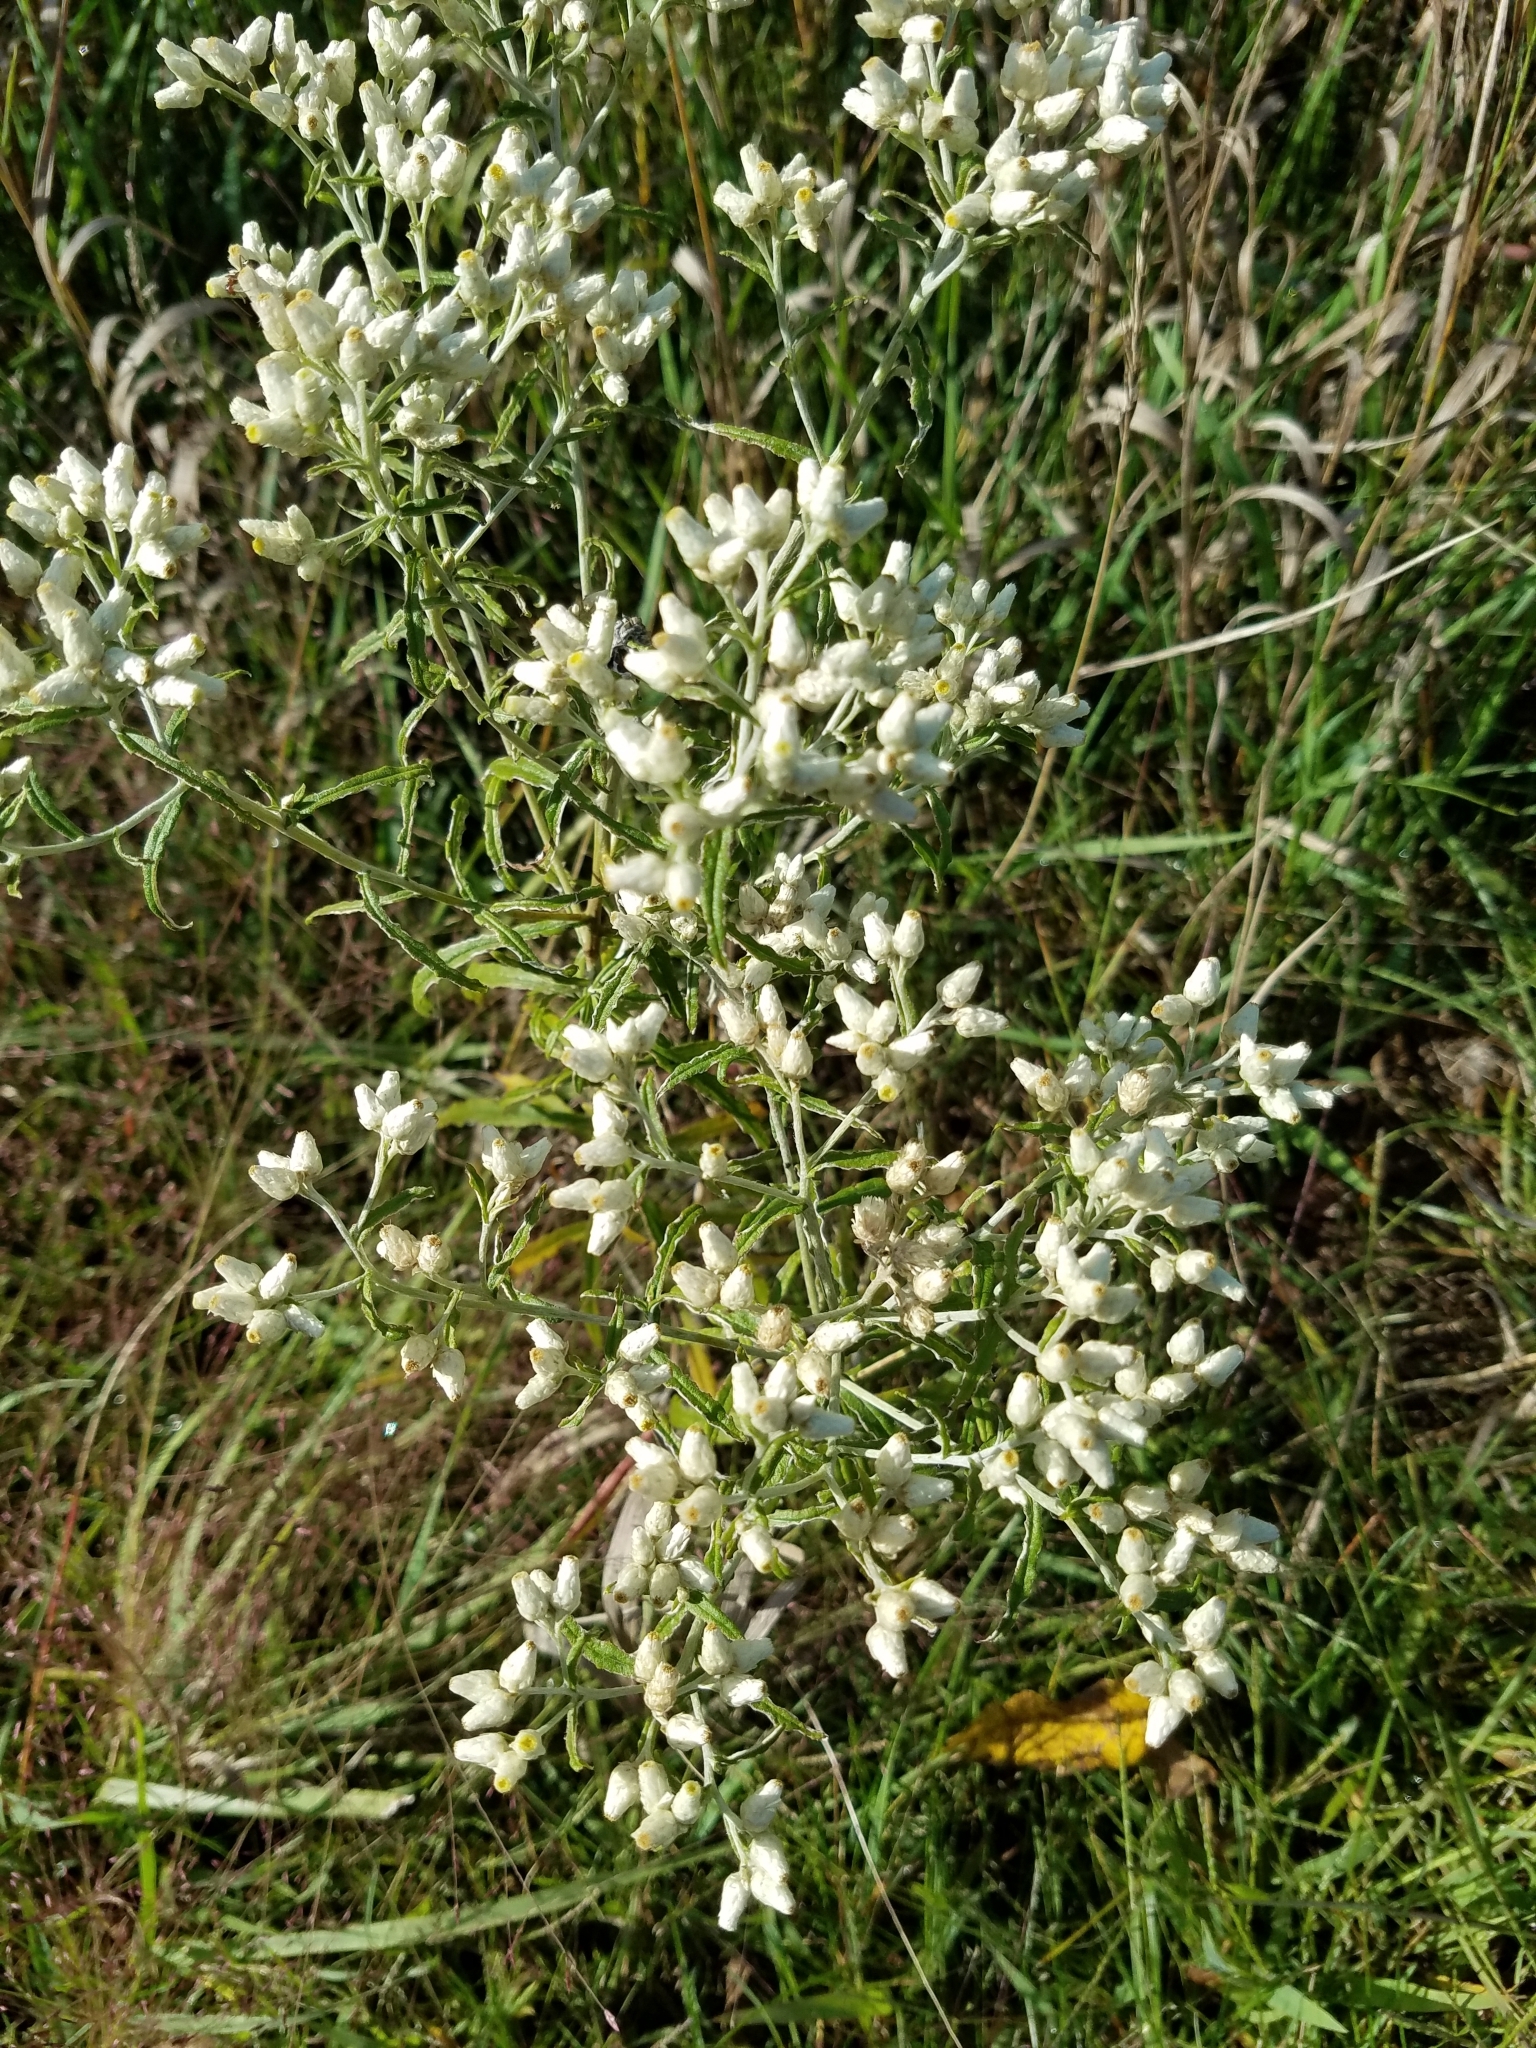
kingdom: Plantae
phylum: Tracheophyta
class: Magnoliopsida
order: Asterales
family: Asteraceae
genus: Pseudognaphalium
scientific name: Pseudognaphalium obtusifolium
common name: Eastern rabbit-tobacco
